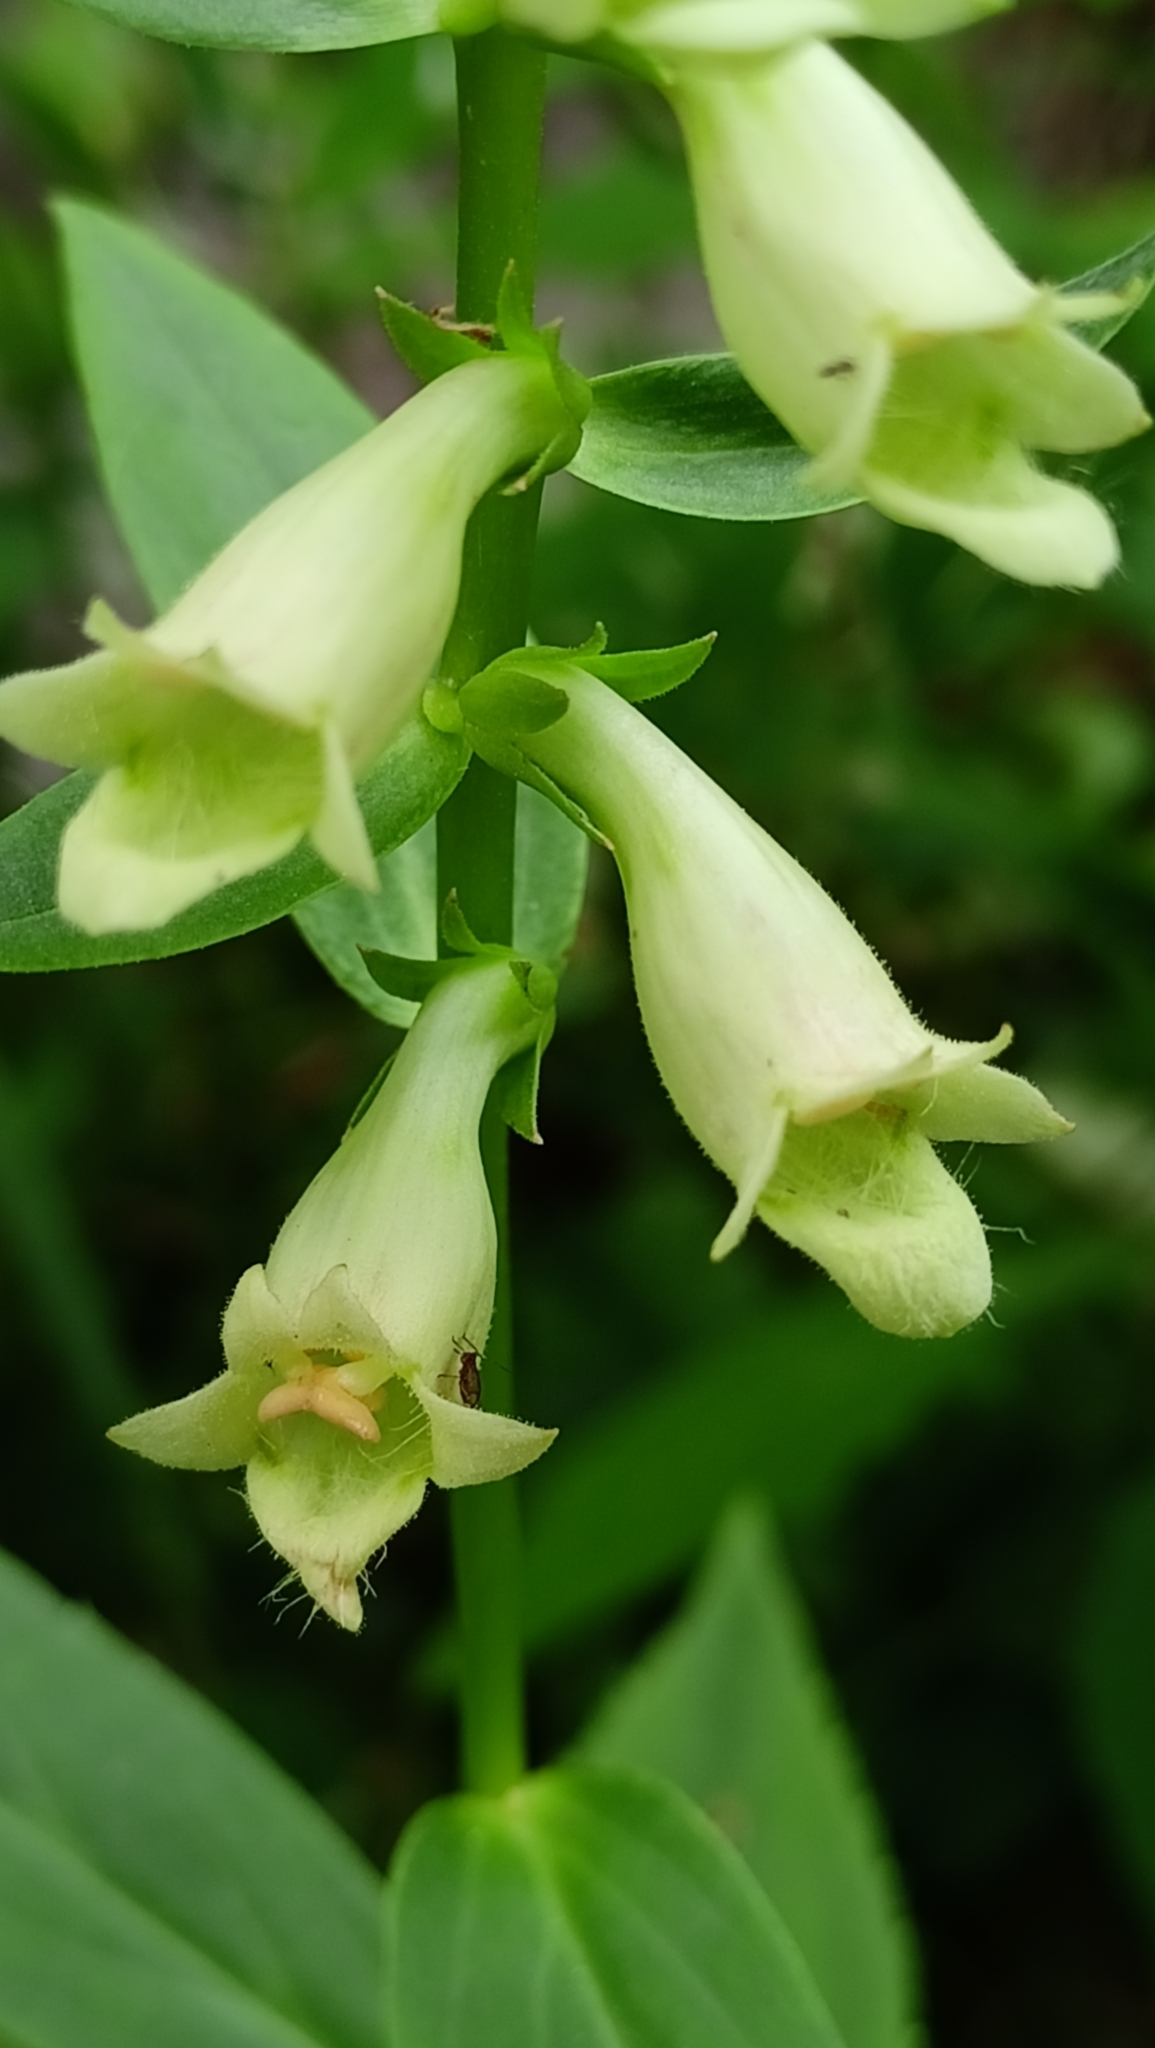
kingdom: Plantae
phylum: Tracheophyta
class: Magnoliopsida
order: Lamiales
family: Plantaginaceae
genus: Digitalis
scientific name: Digitalis lutea
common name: Straw foxglove
